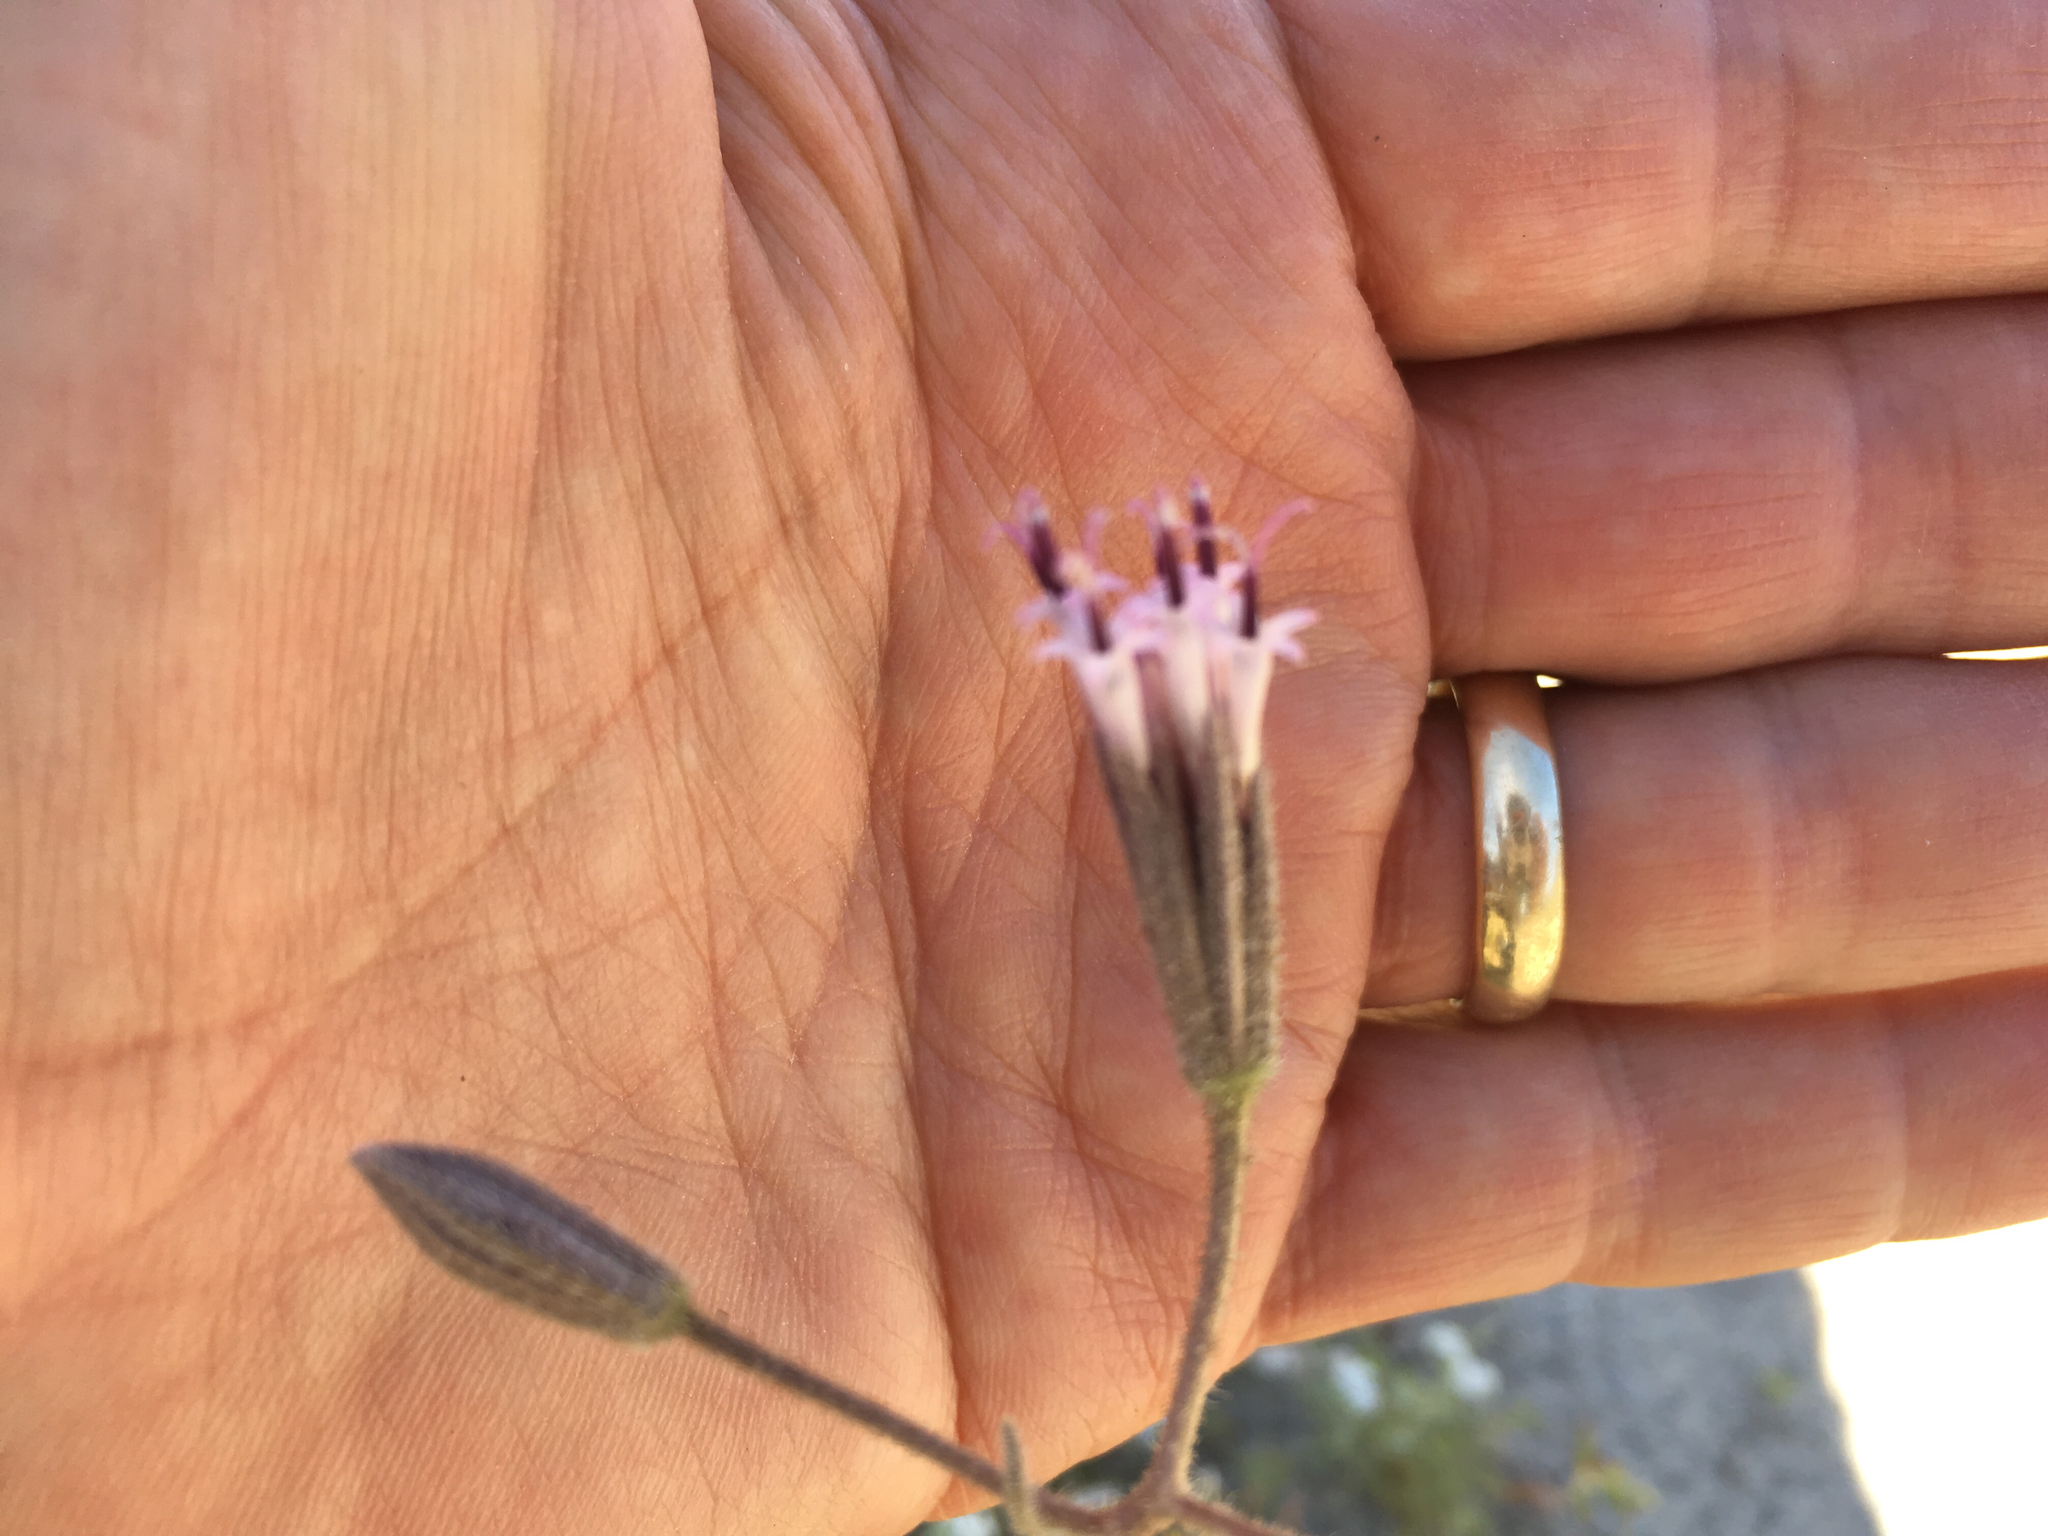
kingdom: Plantae
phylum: Tracheophyta
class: Magnoliopsida
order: Asterales
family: Asteraceae
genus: Palafoxia
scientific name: Palafoxia arida
